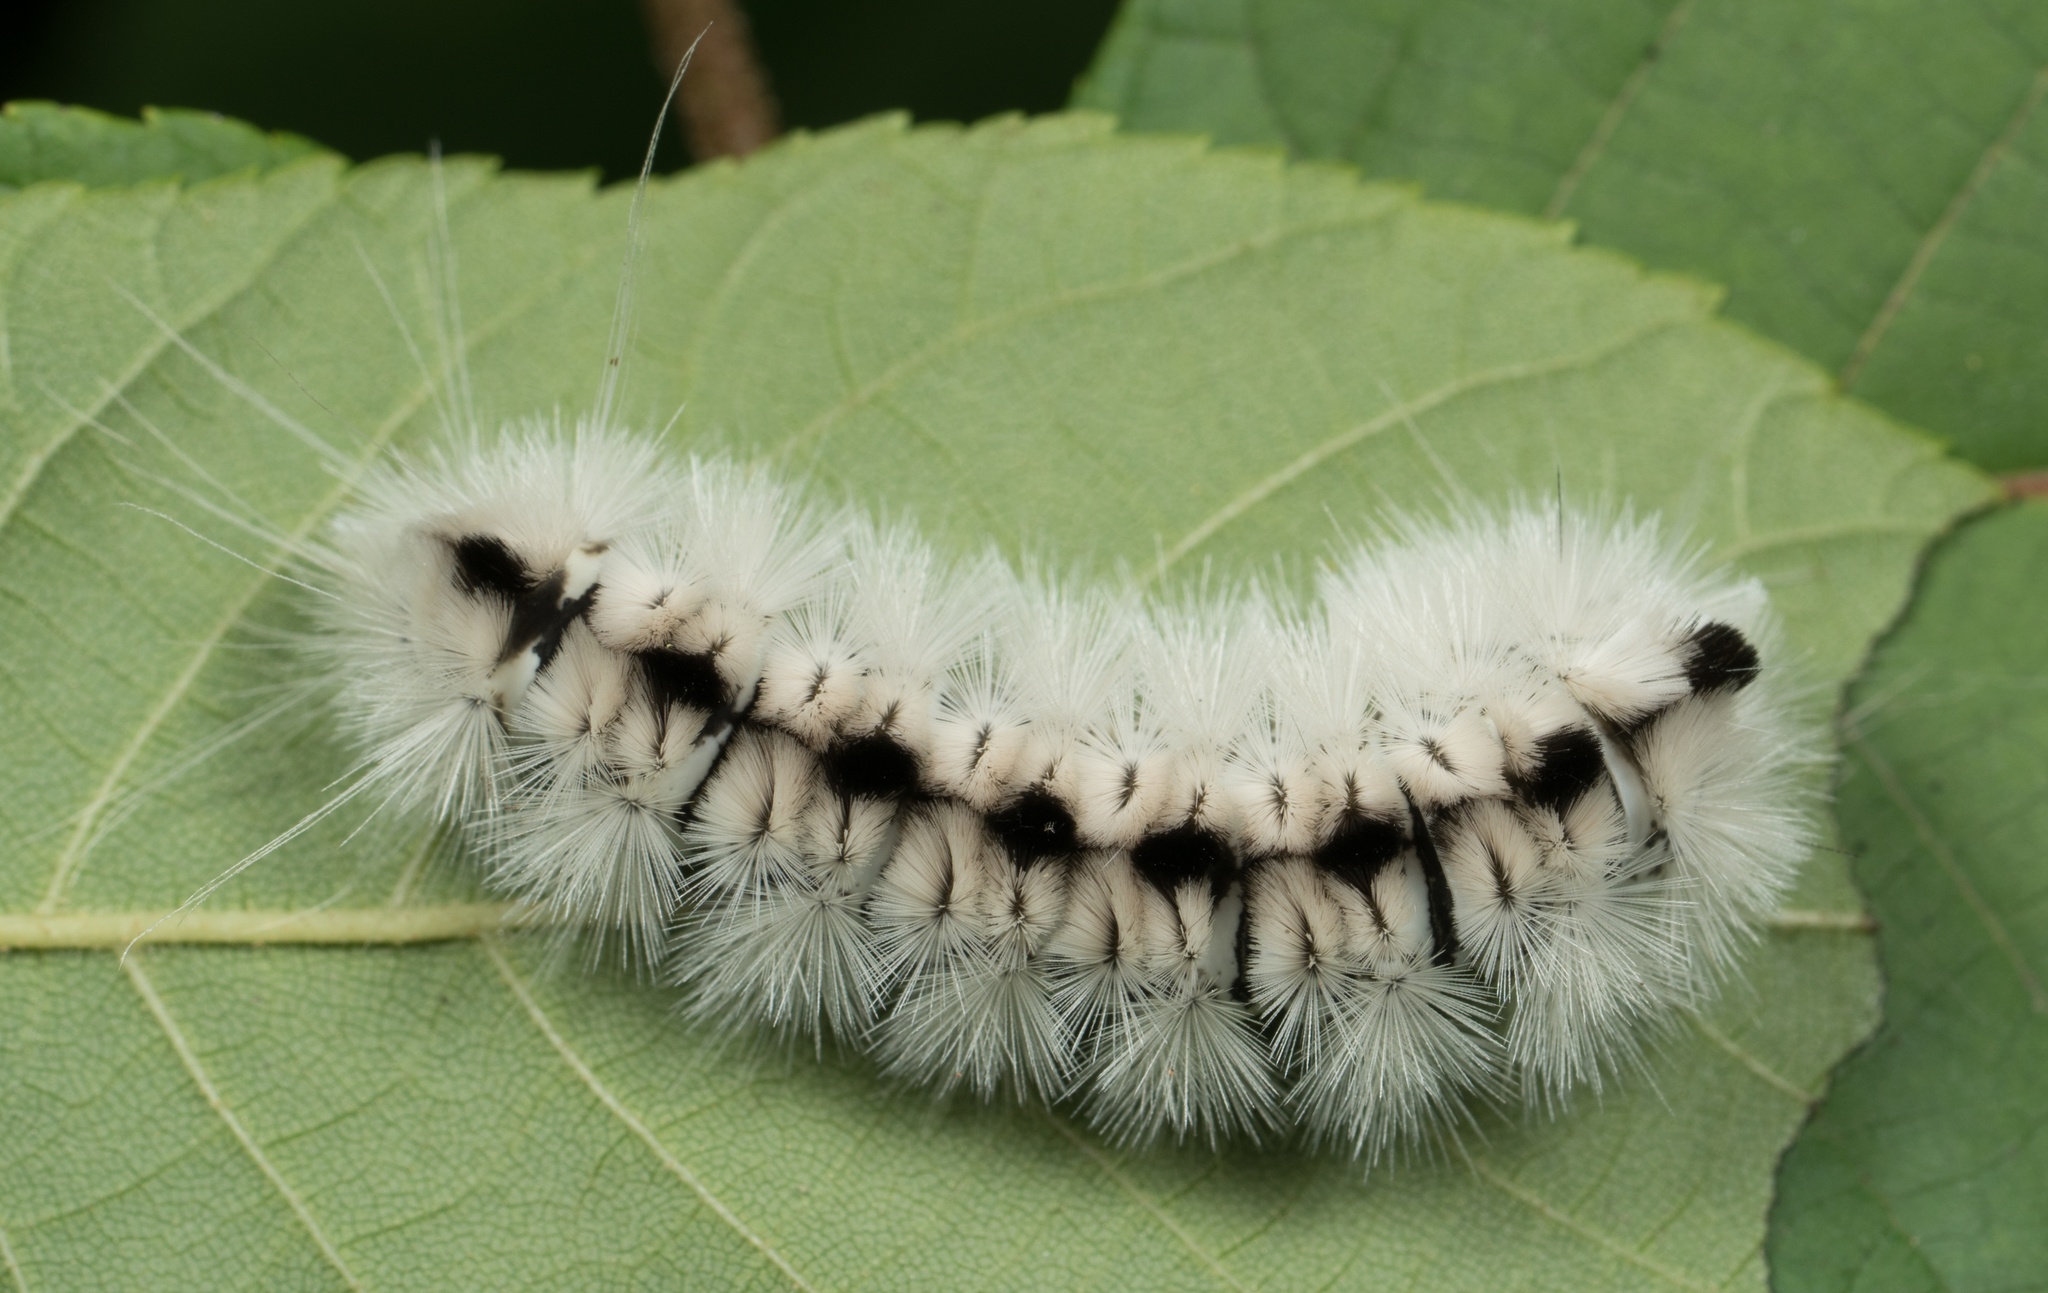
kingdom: Animalia
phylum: Arthropoda
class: Insecta
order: Lepidoptera
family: Erebidae
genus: Lophocampa
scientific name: Lophocampa caryae
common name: Hickory tussock moth
